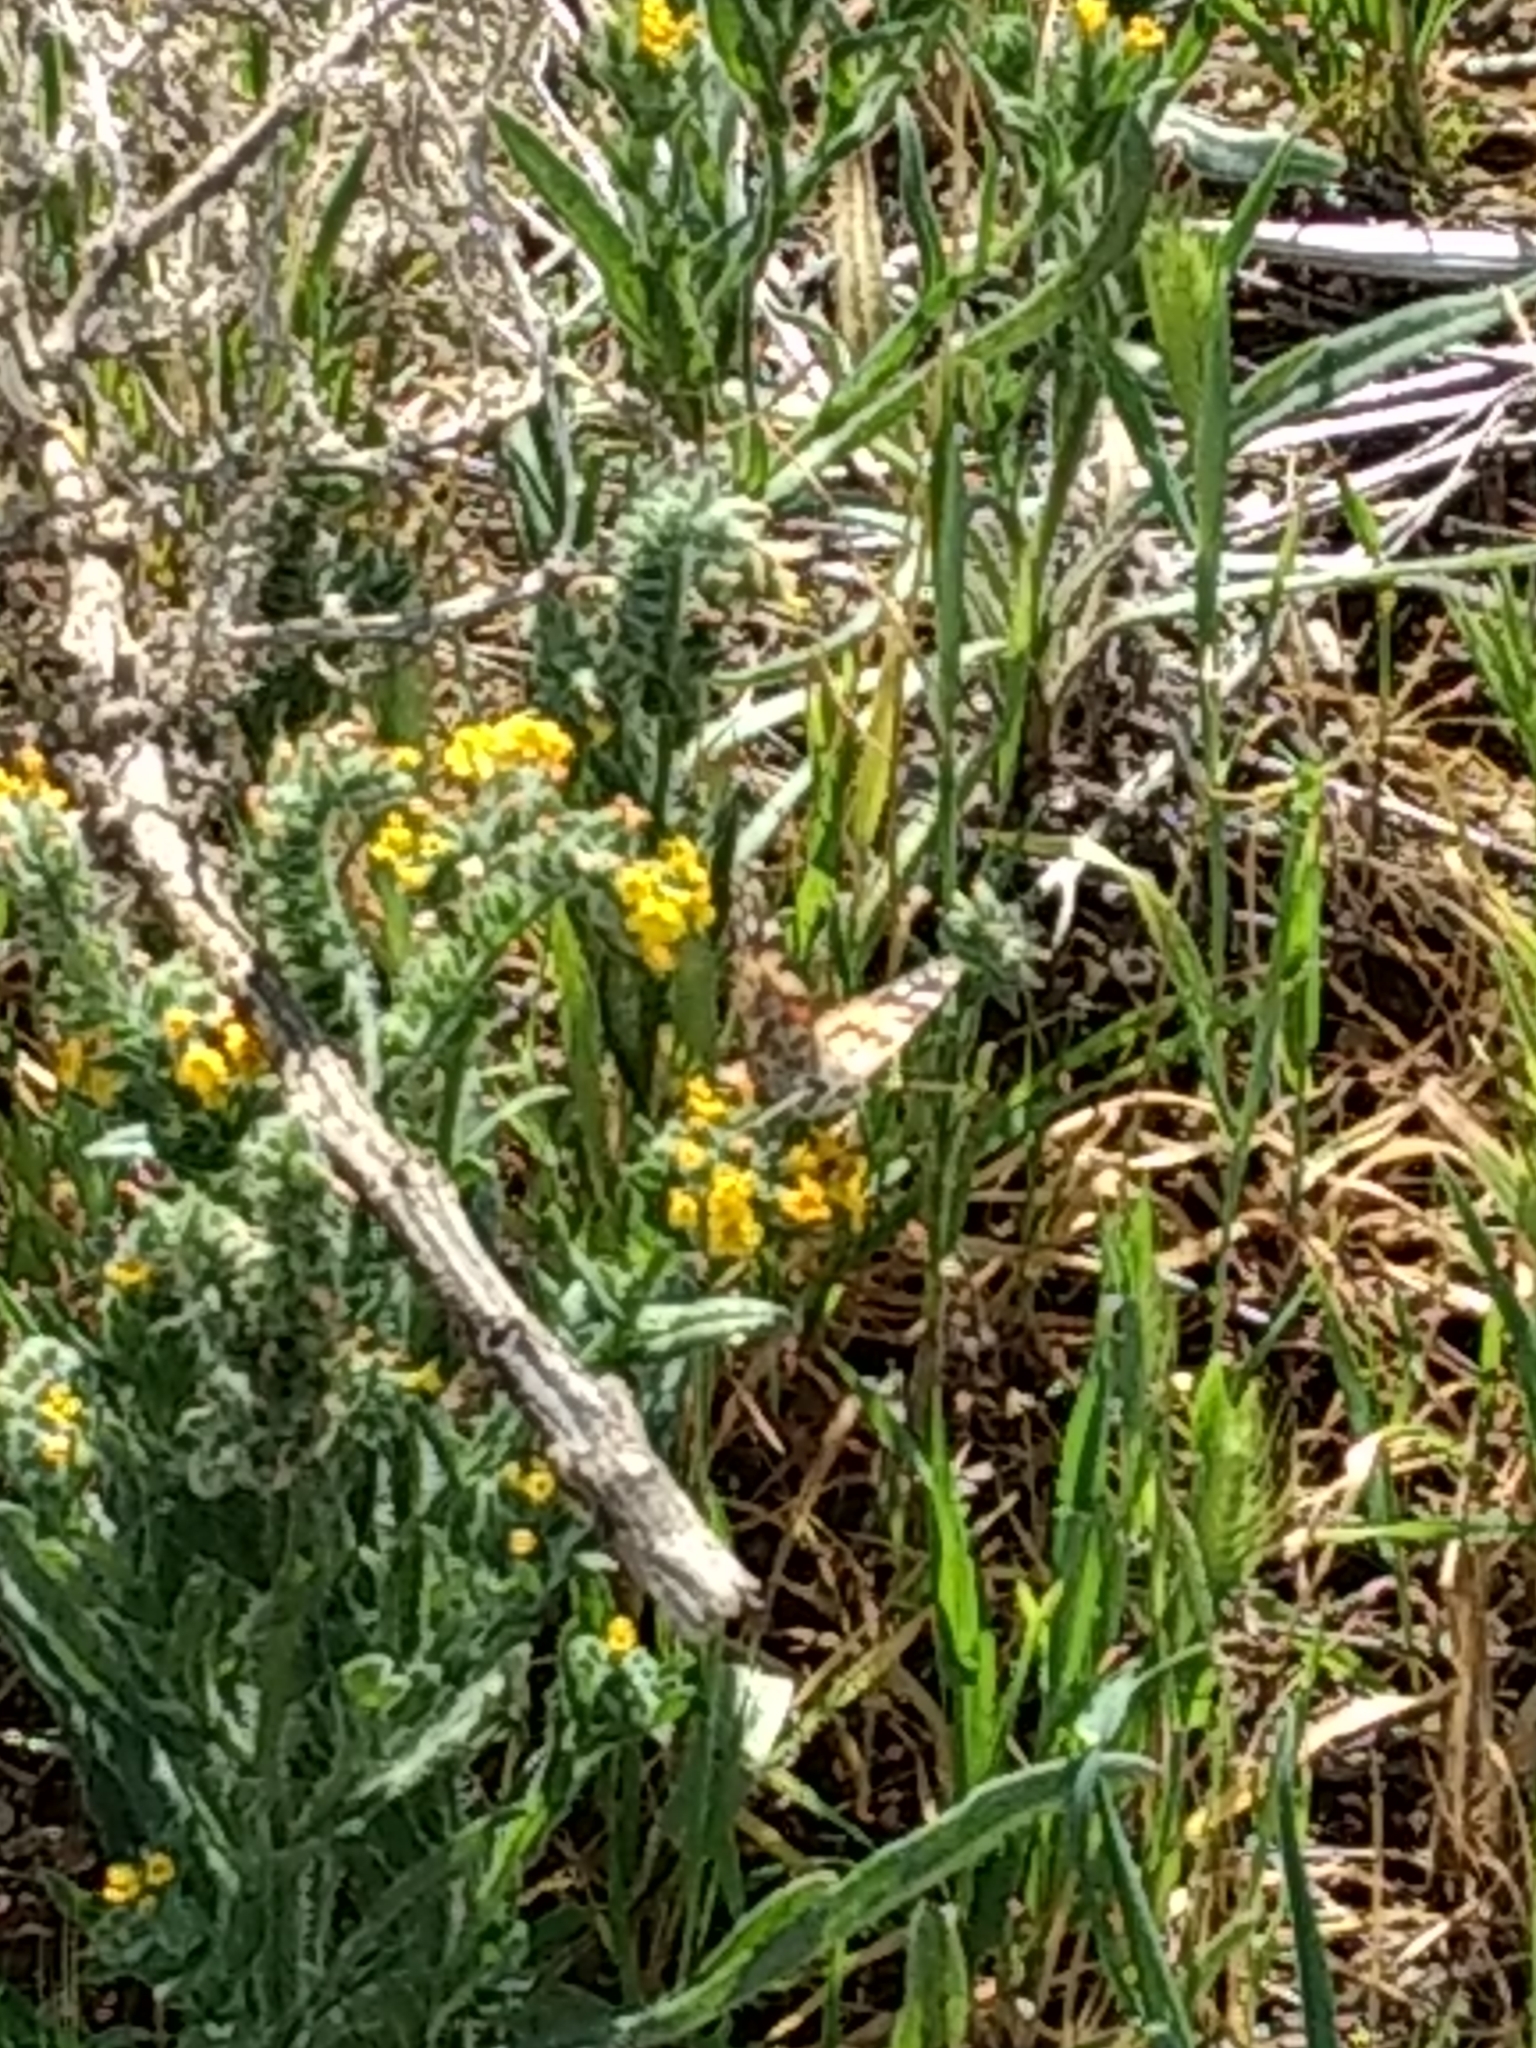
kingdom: Animalia
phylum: Arthropoda
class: Insecta
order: Lepidoptera
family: Nymphalidae
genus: Vanessa
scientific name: Vanessa cardui
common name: Painted lady
